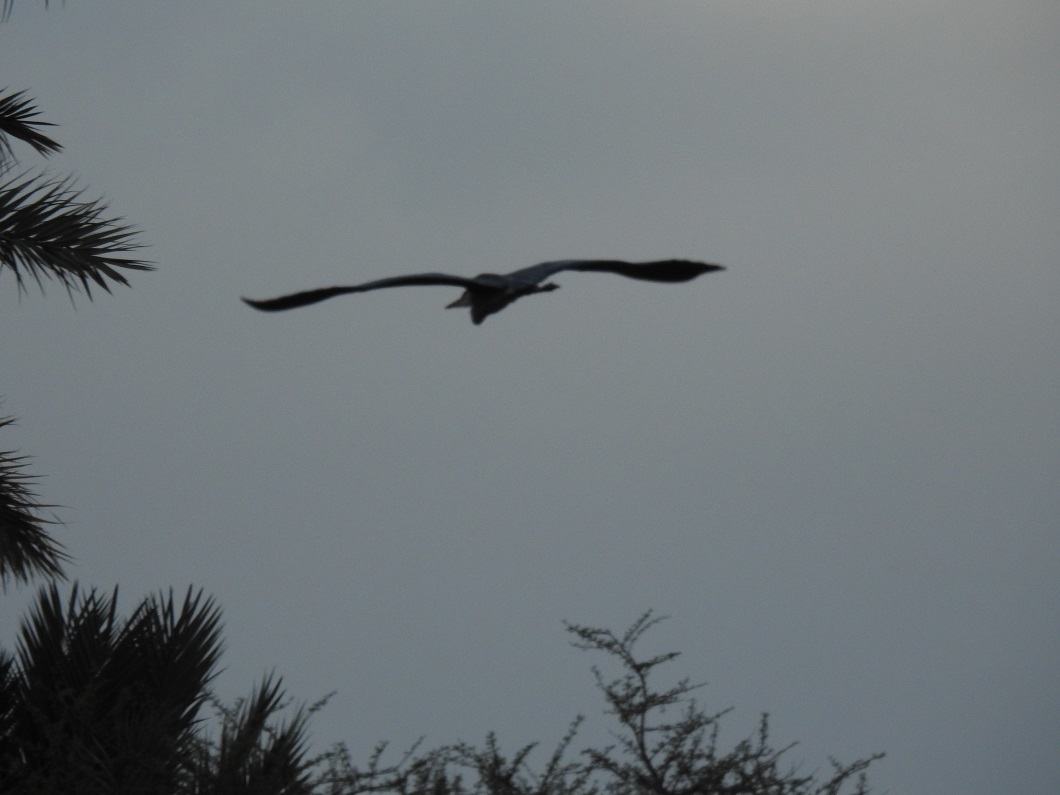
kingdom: Animalia
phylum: Chordata
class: Aves
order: Pelecaniformes
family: Ardeidae
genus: Ardea
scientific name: Ardea cinerea
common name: Grey heron
